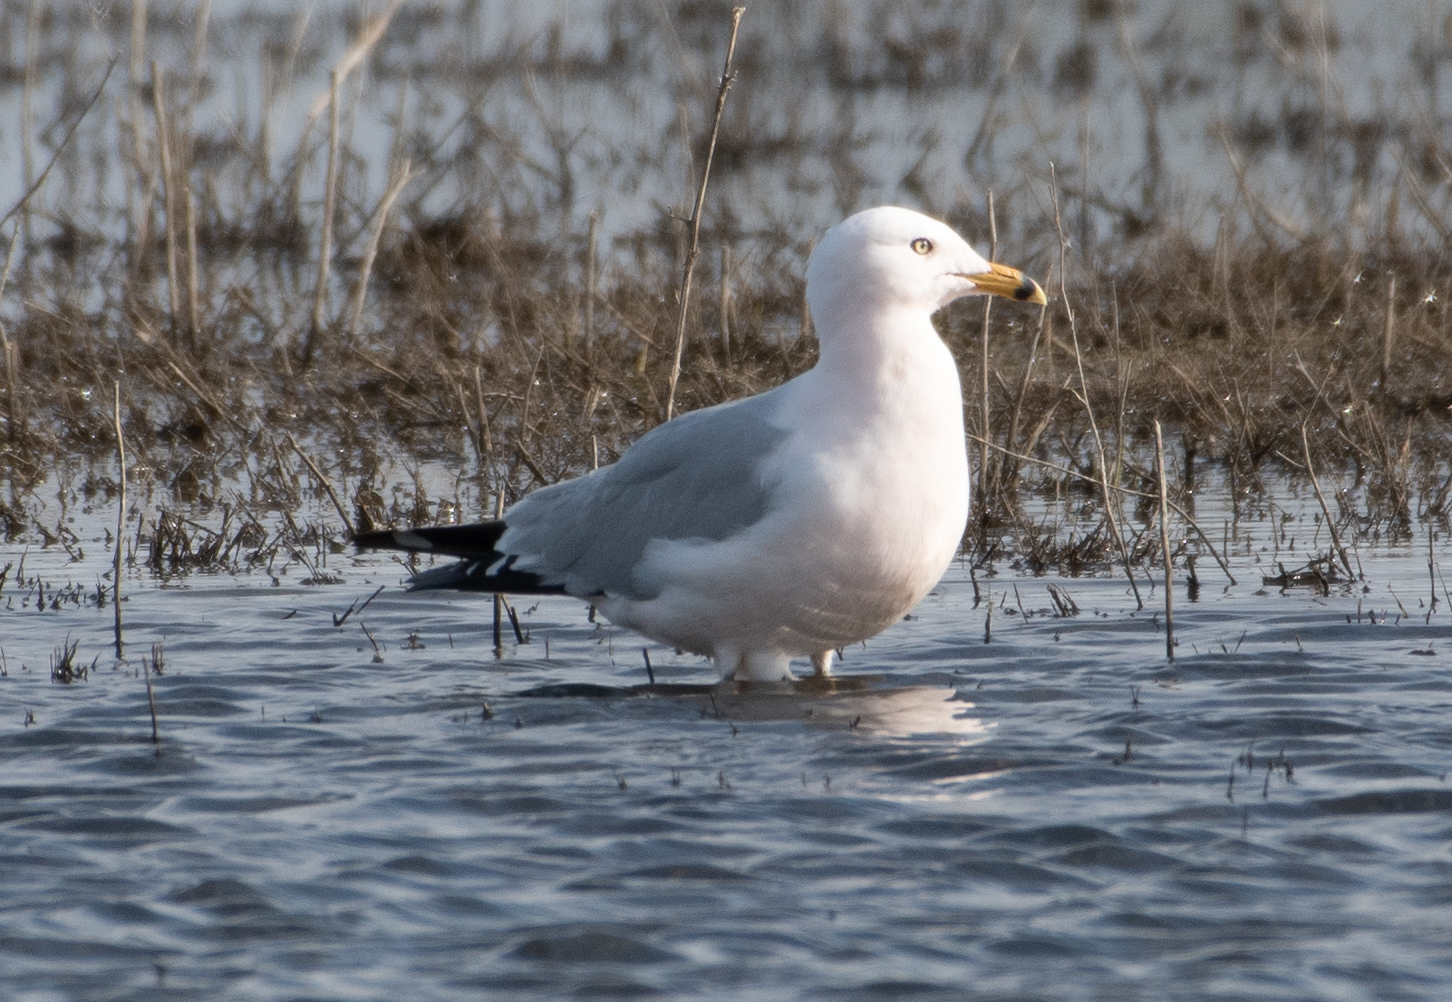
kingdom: Animalia
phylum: Chordata
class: Aves
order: Charadriiformes
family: Laridae
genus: Larus
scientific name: Larus delawarensis
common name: Ring-billed gull
